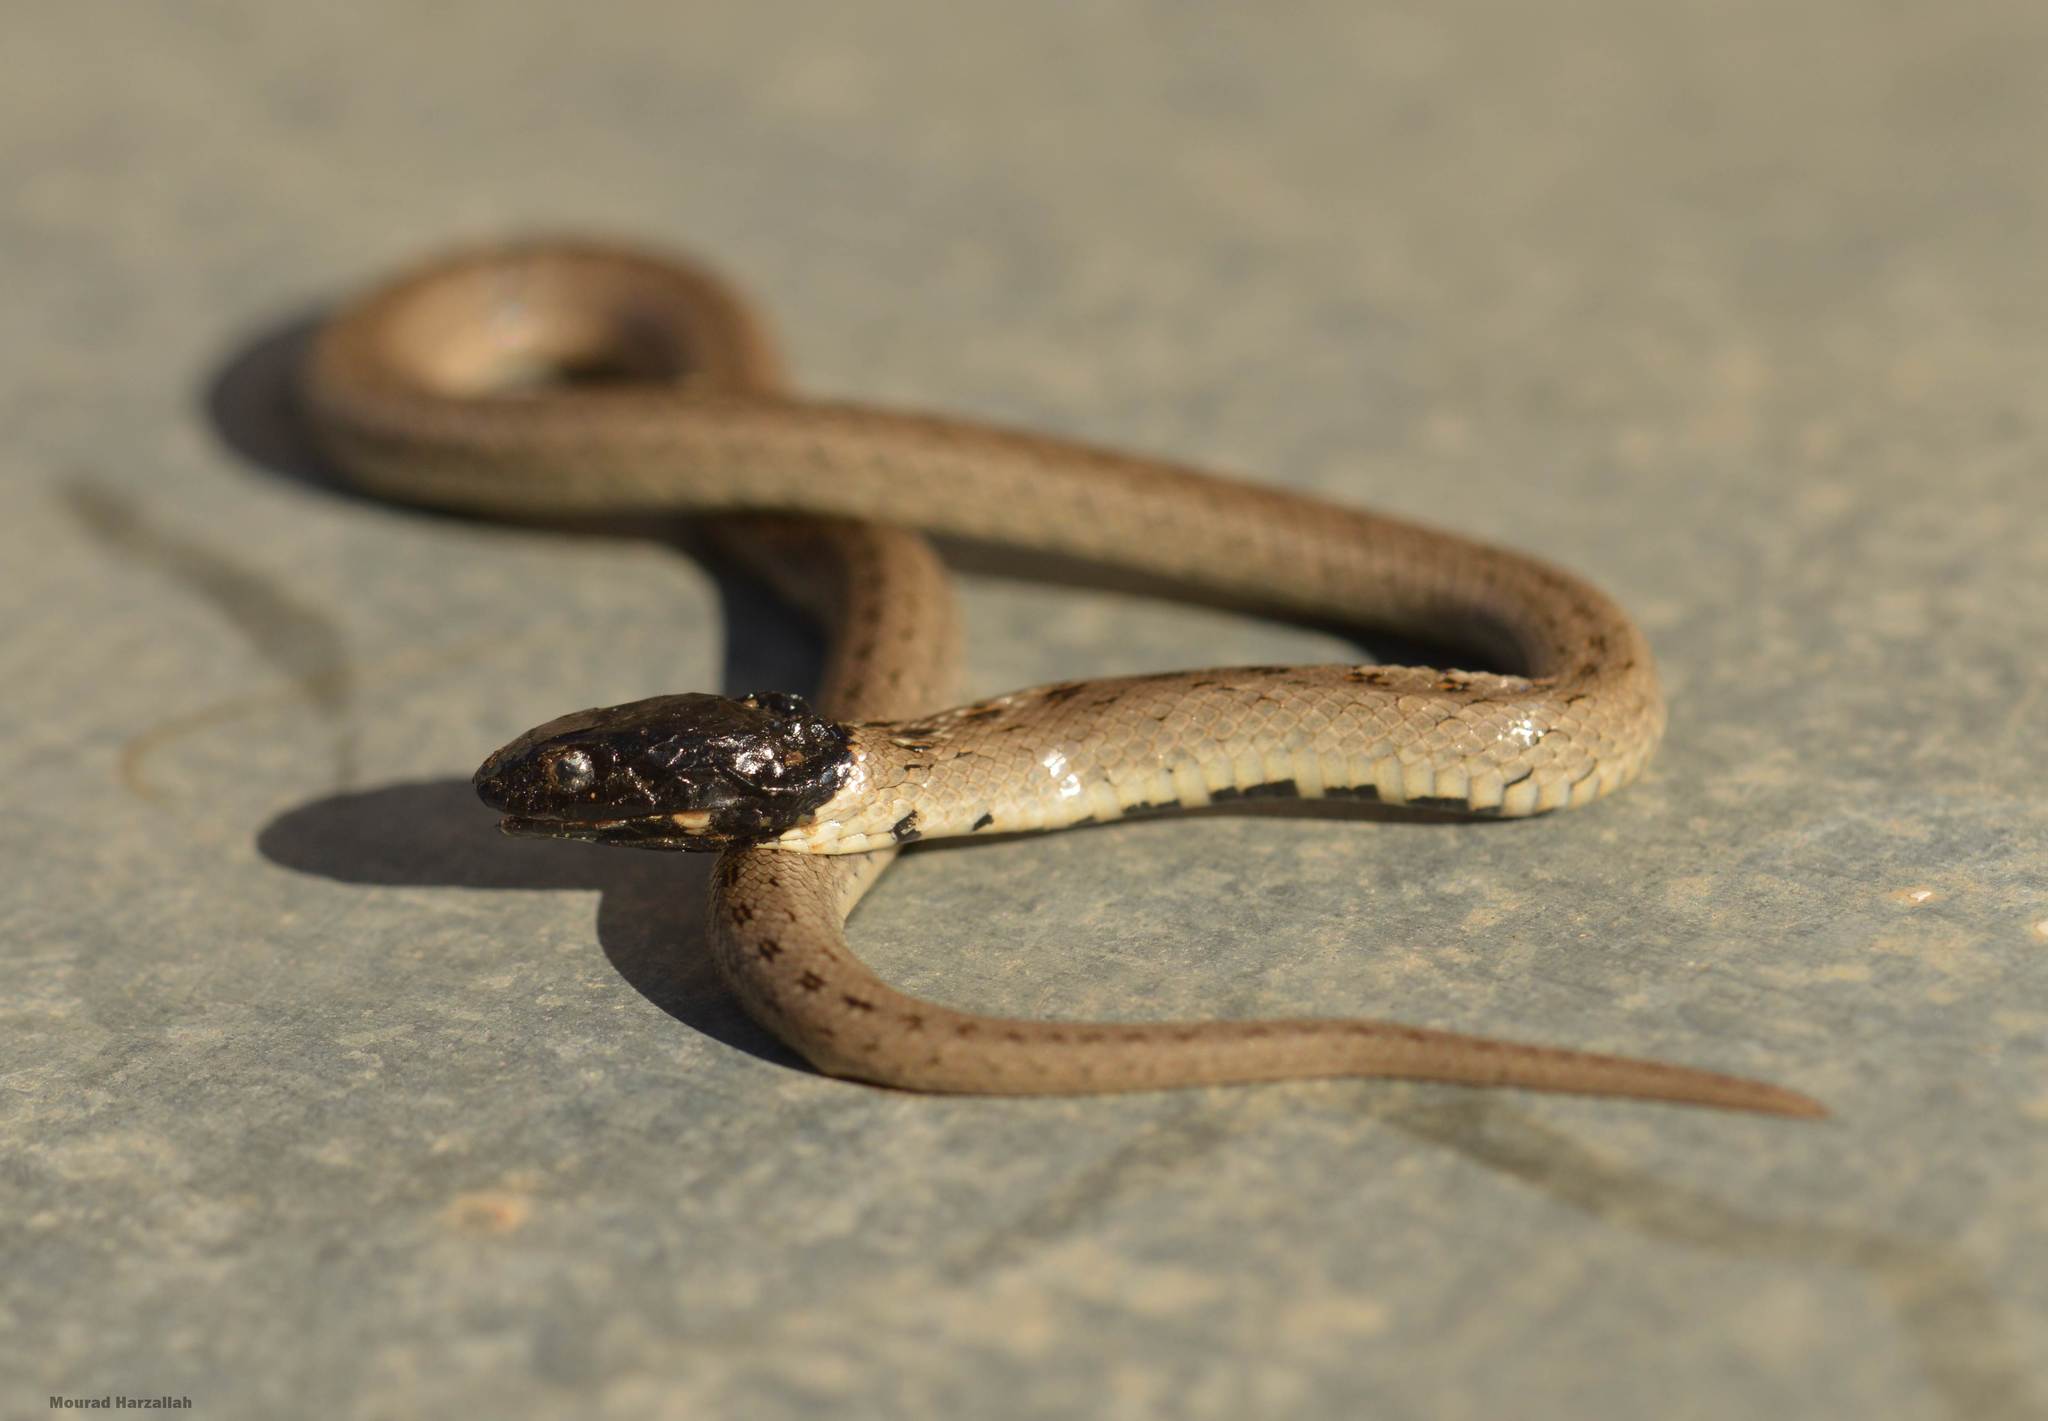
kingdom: Animalia
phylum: Chordata
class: Squamata
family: Colubridae
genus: Macroprotodon
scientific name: Macroprotodon mauritanicus
